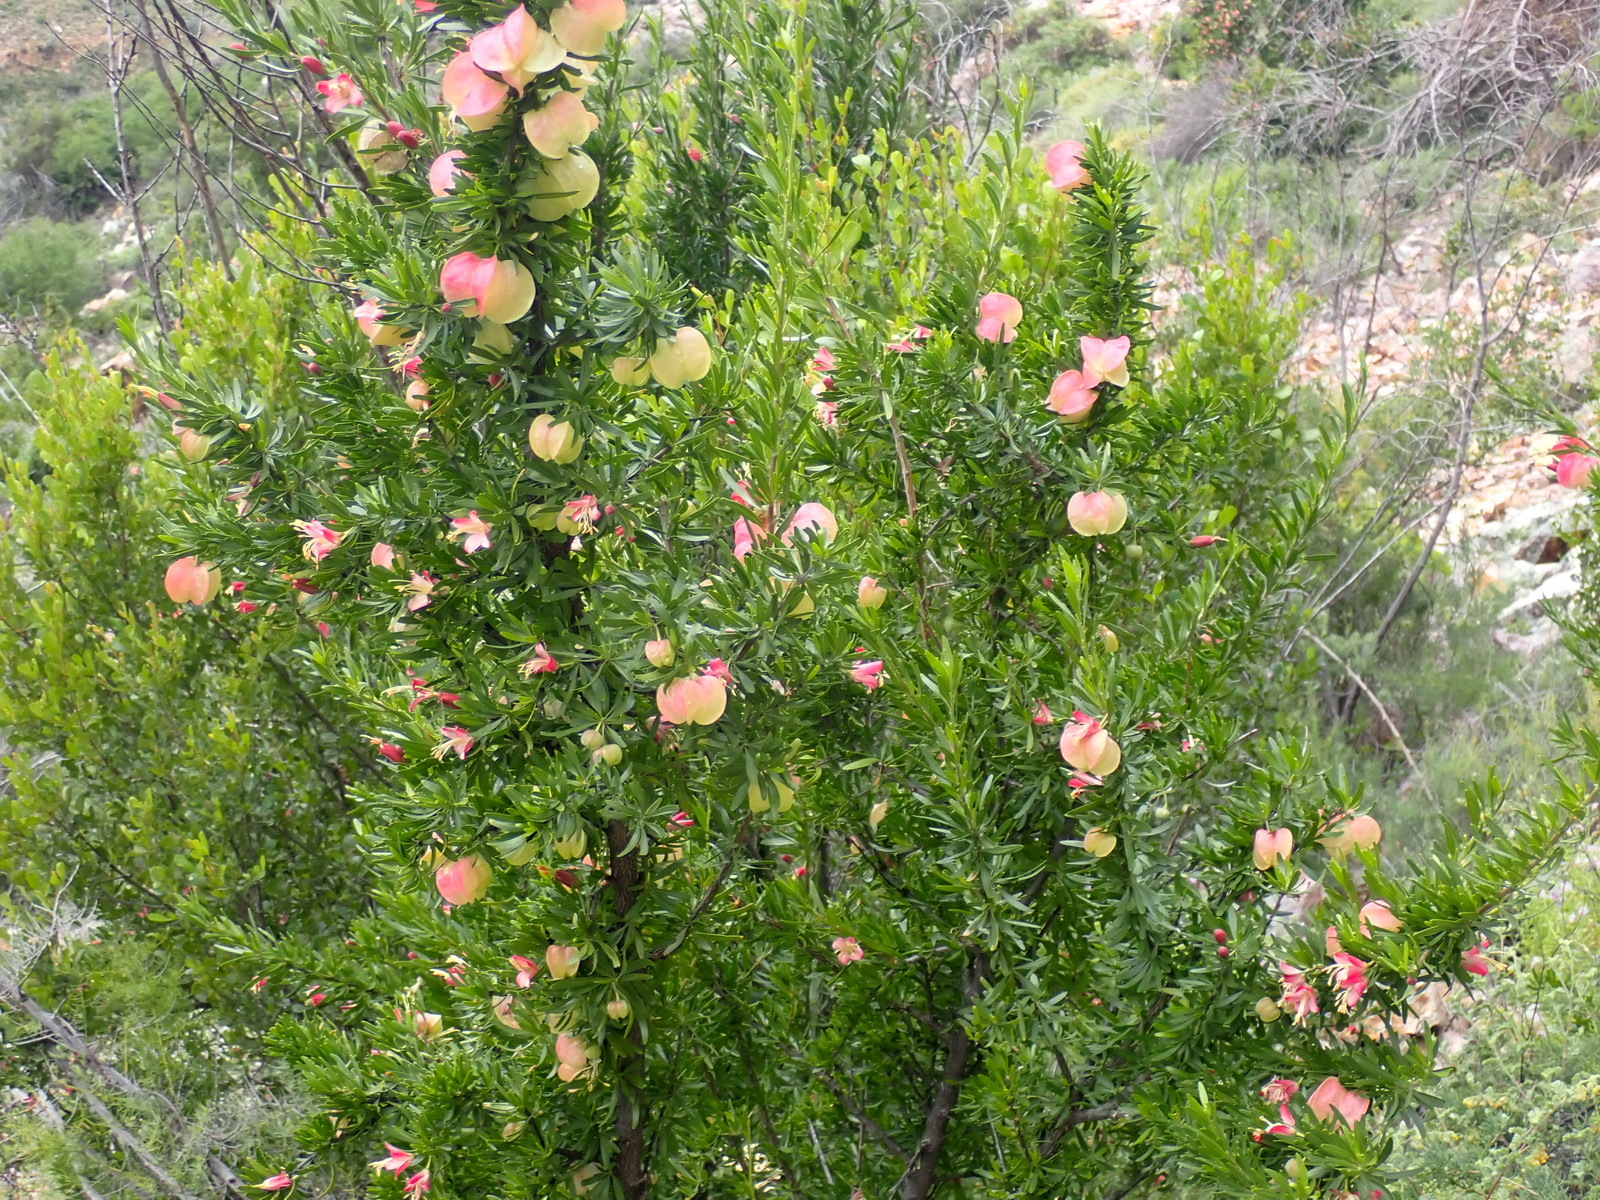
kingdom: Plantae
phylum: Tracheophyta
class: Magnoliopsida
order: Sapindales
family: Meliaceae
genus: Nymania
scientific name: Nymania capensis
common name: Chinese lantern tree
